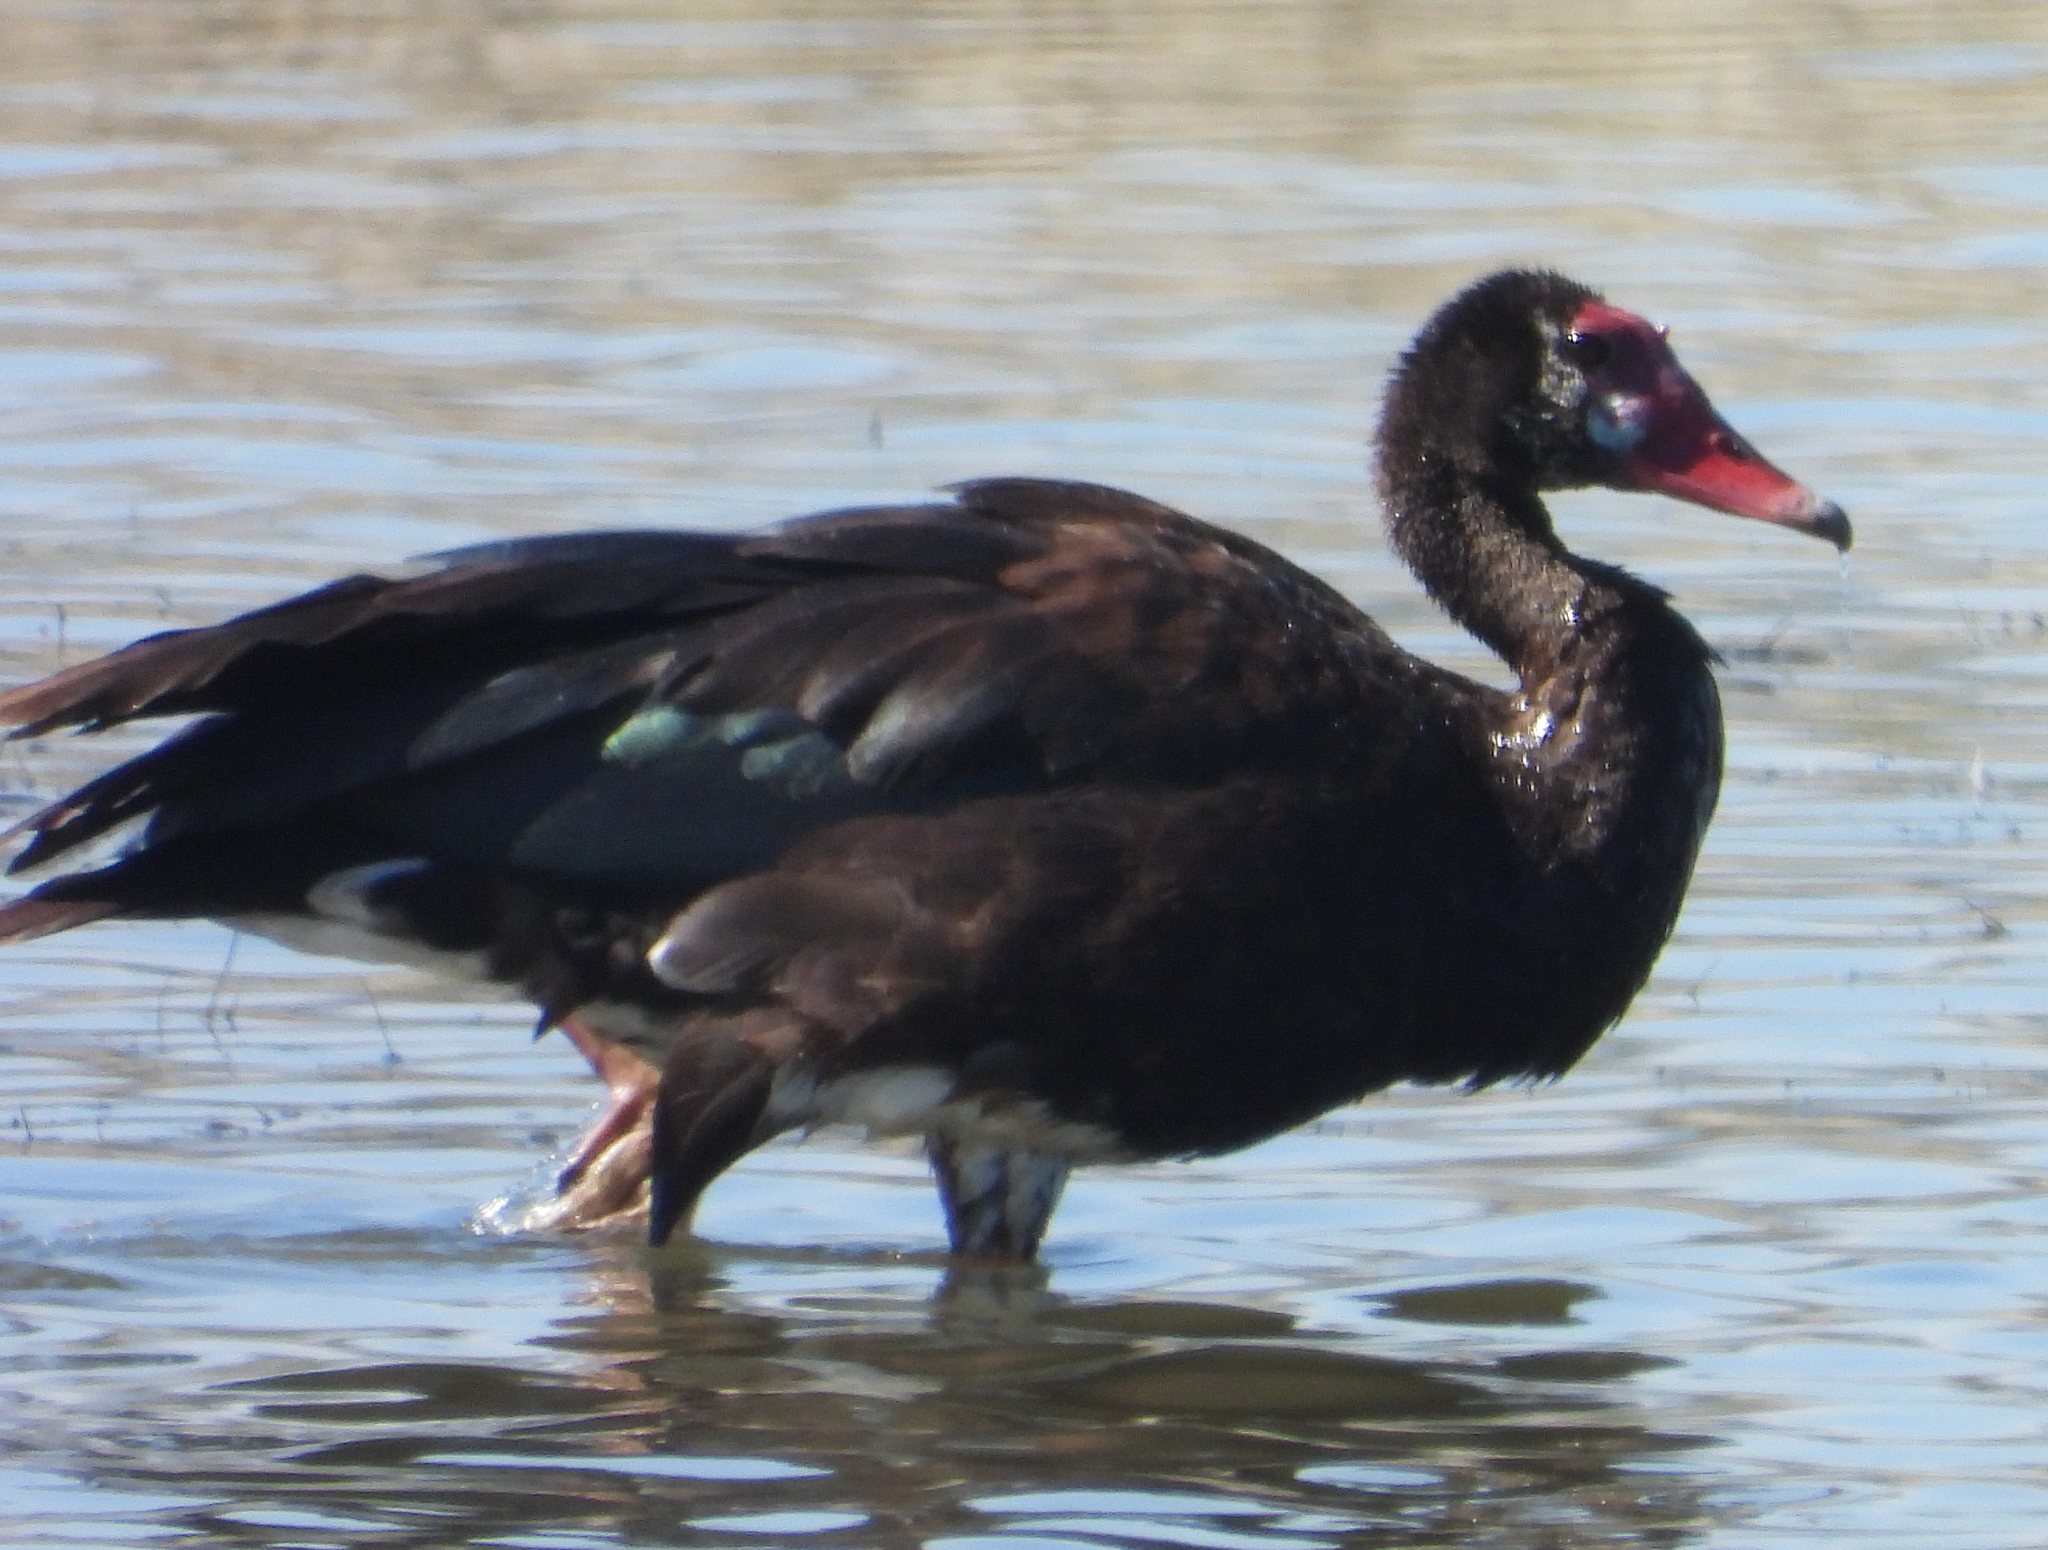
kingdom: Animalia
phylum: Chordata
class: Aves
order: Anseriformes
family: Anatidae
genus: Plectropterus
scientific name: Plectropterus gambensis
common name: Spur-winged goose
